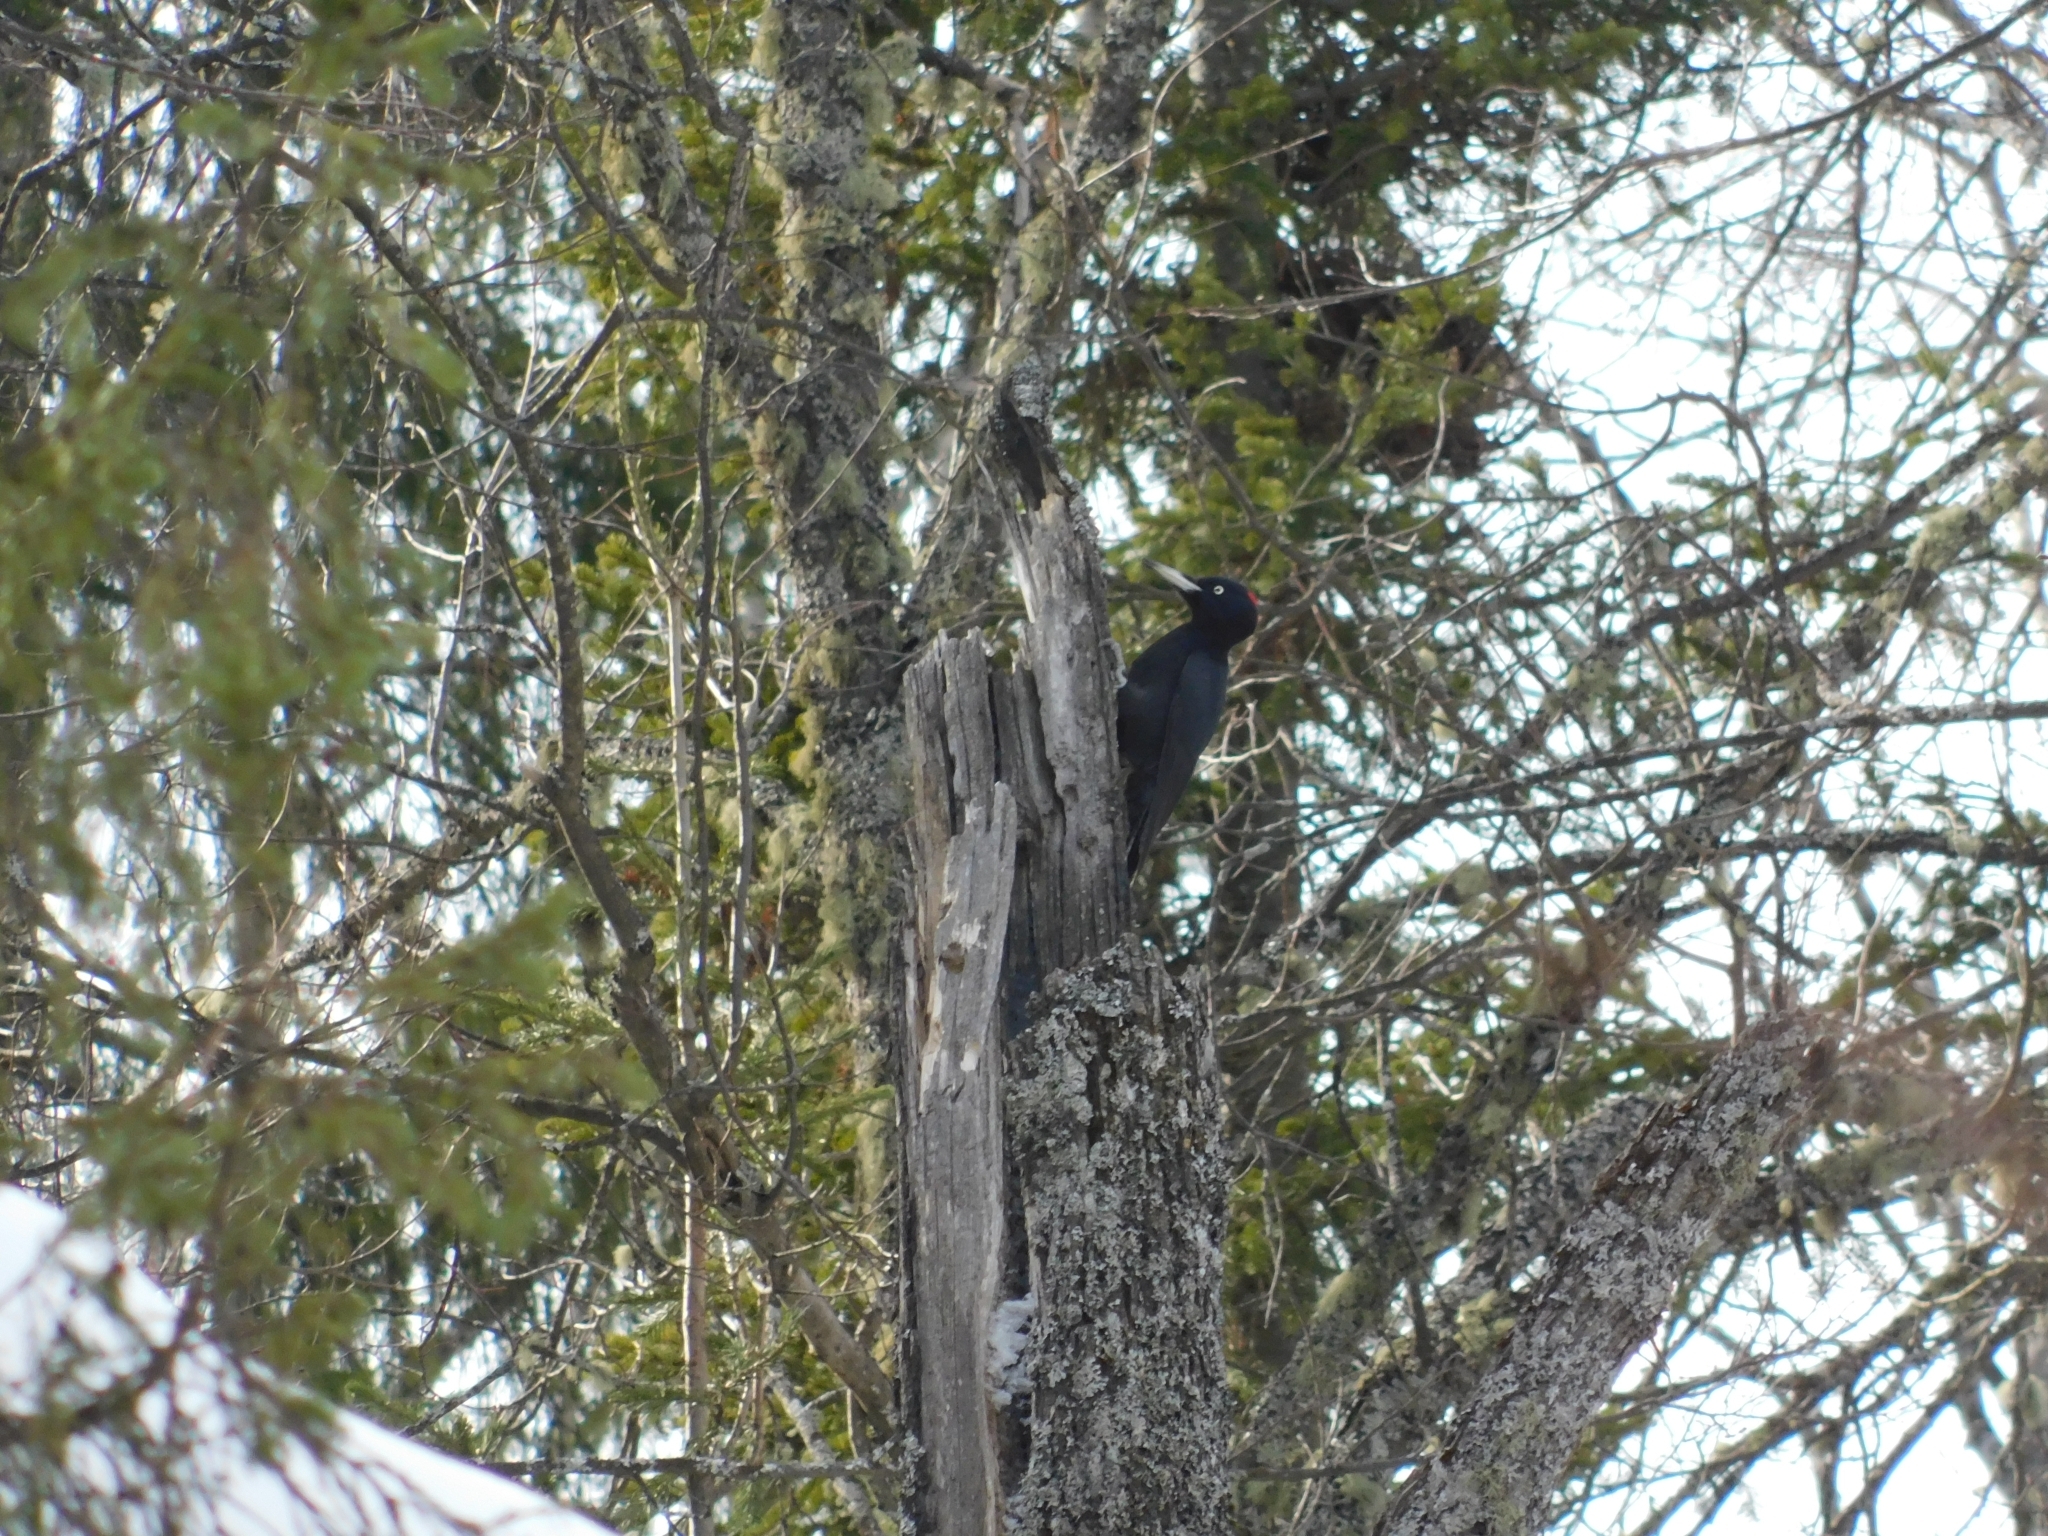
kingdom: Animalia
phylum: Chordata
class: Aves
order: Piciformes
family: Picidae
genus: Dryocopus
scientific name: Dryocopus martius
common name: Black woodpecker
